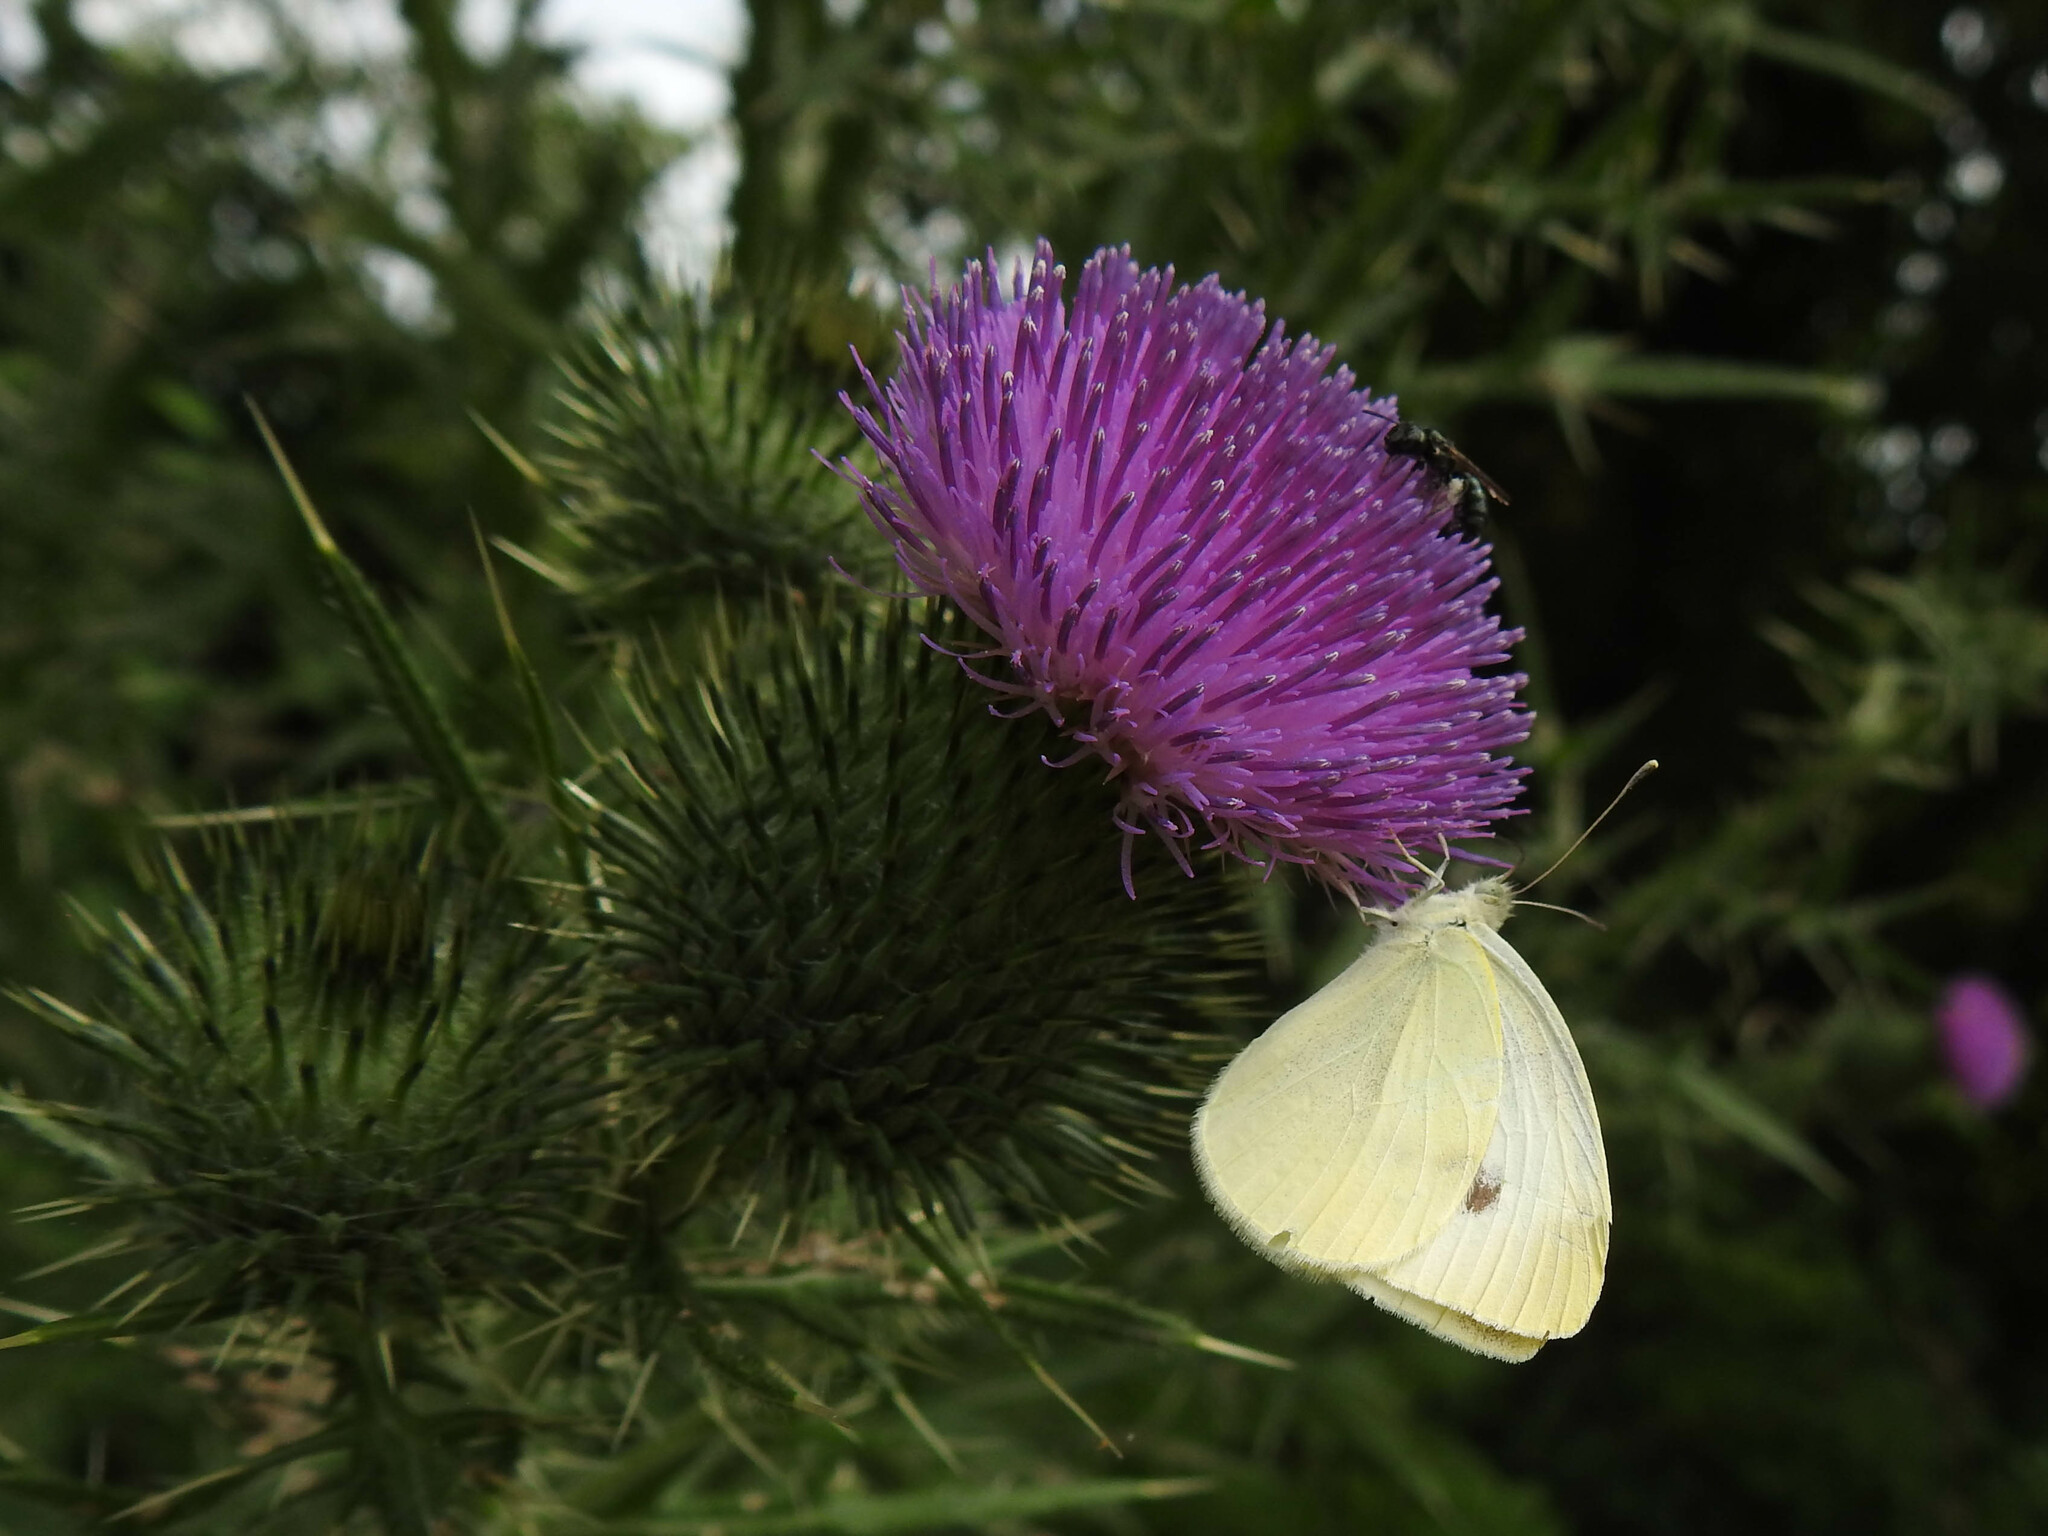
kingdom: Animalia
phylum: Arthropoda
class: Insecta
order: Lepidoptera
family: Pieridae
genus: Pieris
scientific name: Pieris rapae
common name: Small white
